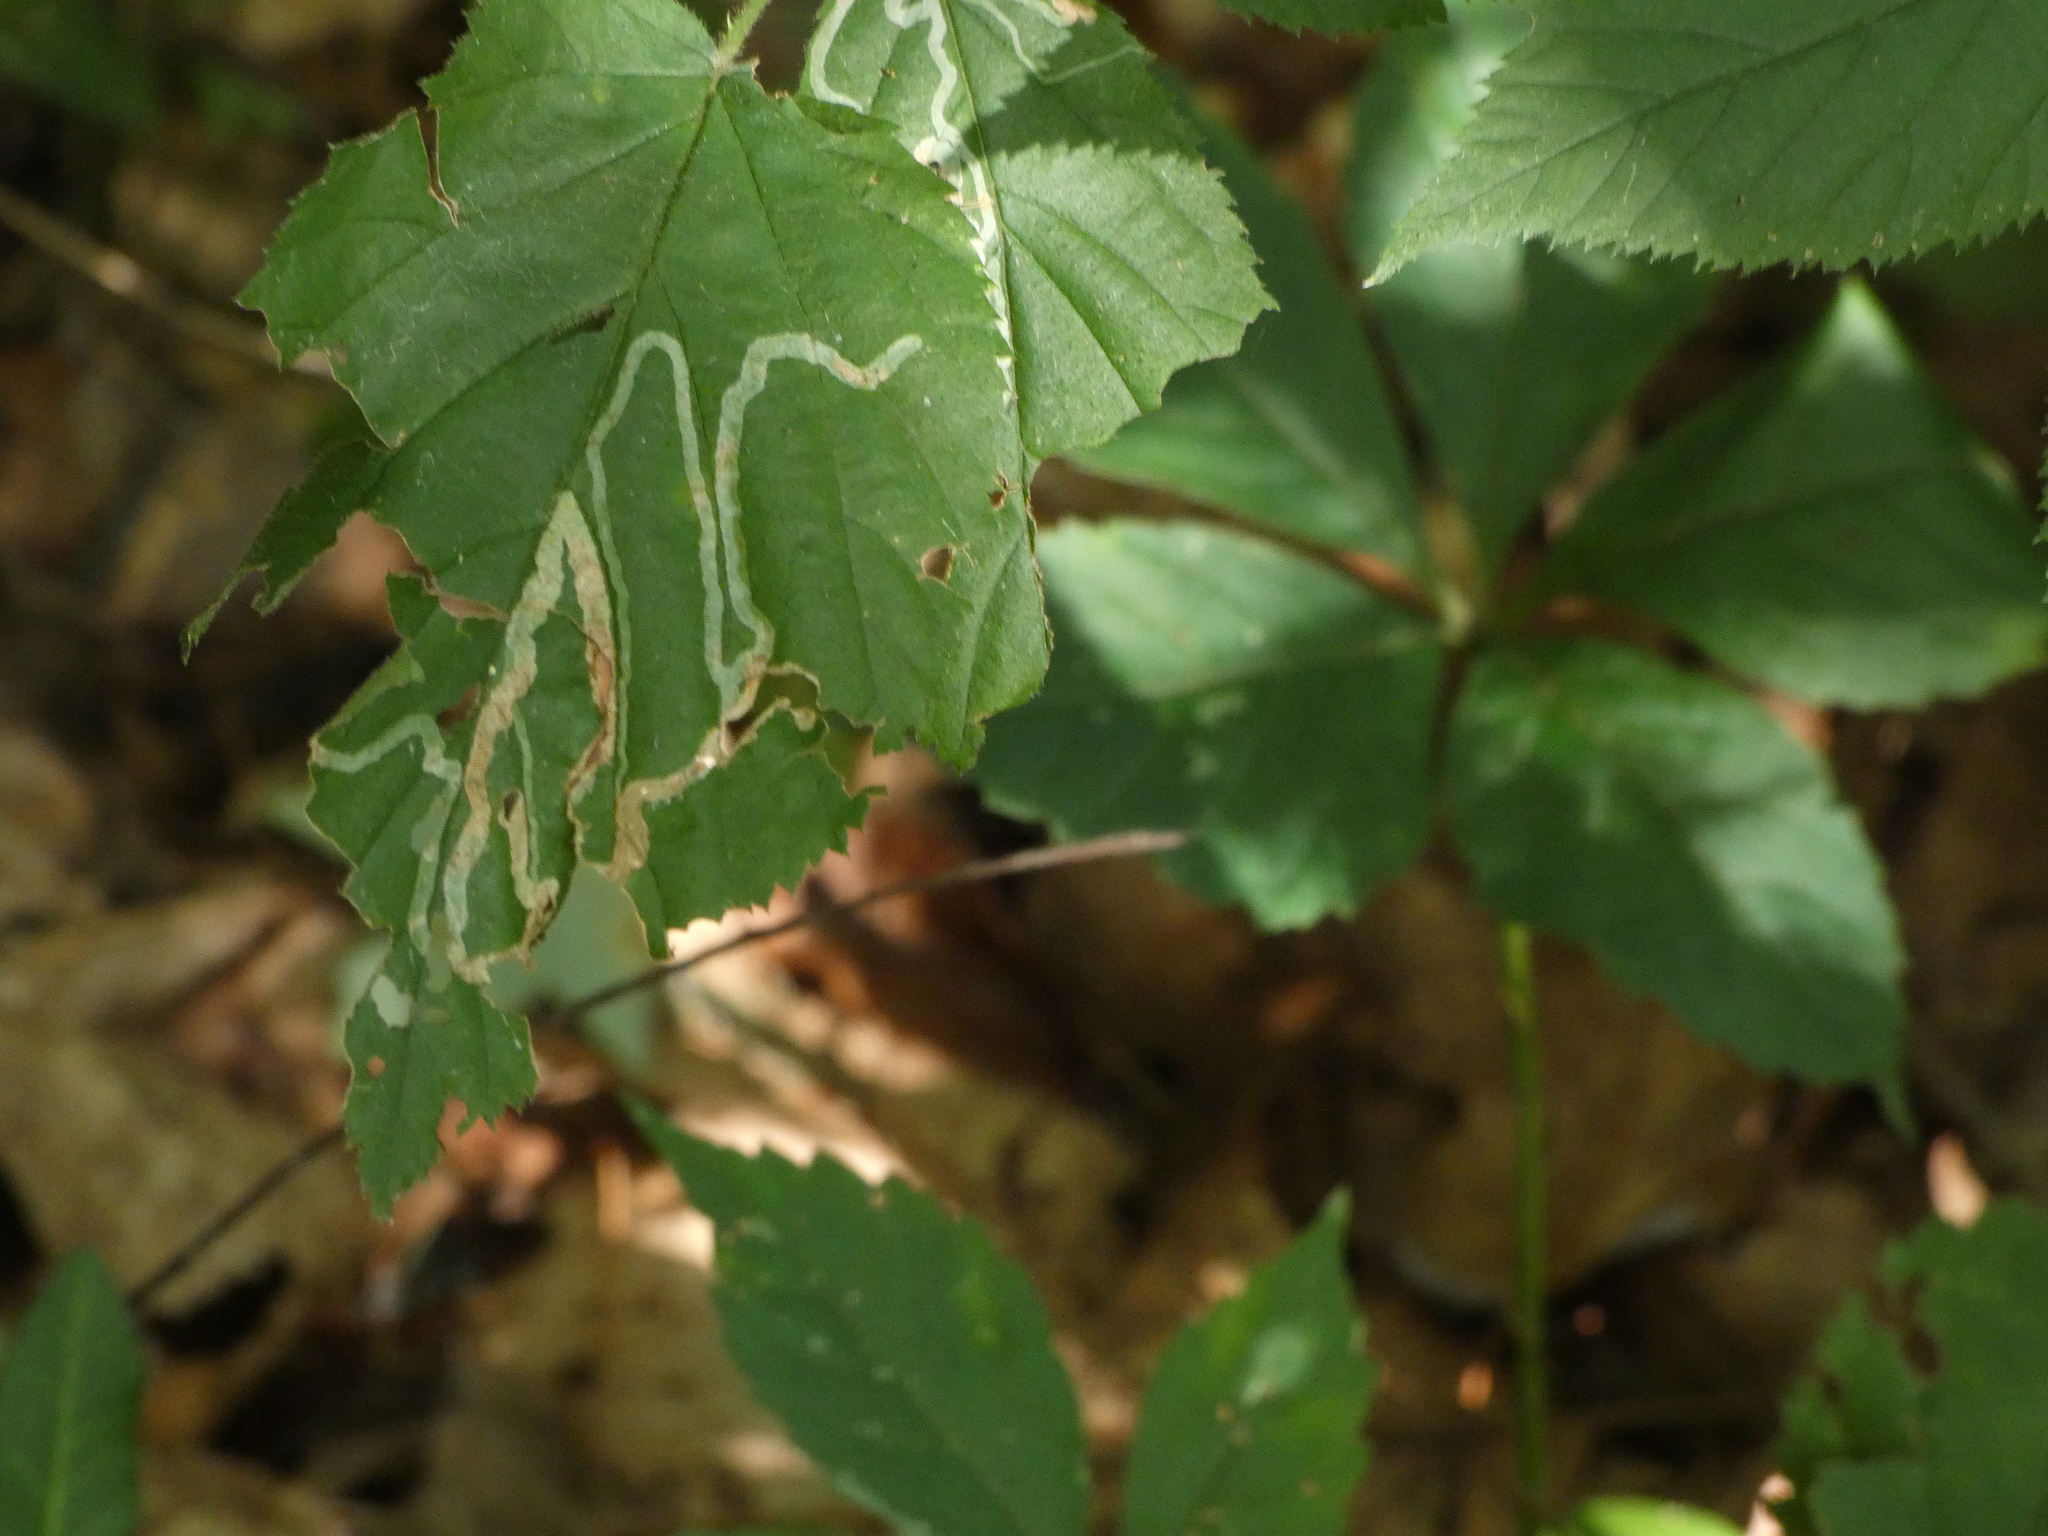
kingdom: Animalia
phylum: Arthropoda
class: Insecta
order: Diptera
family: Agromyzidae
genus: Agromyza
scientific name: Agromyza vockerothi
